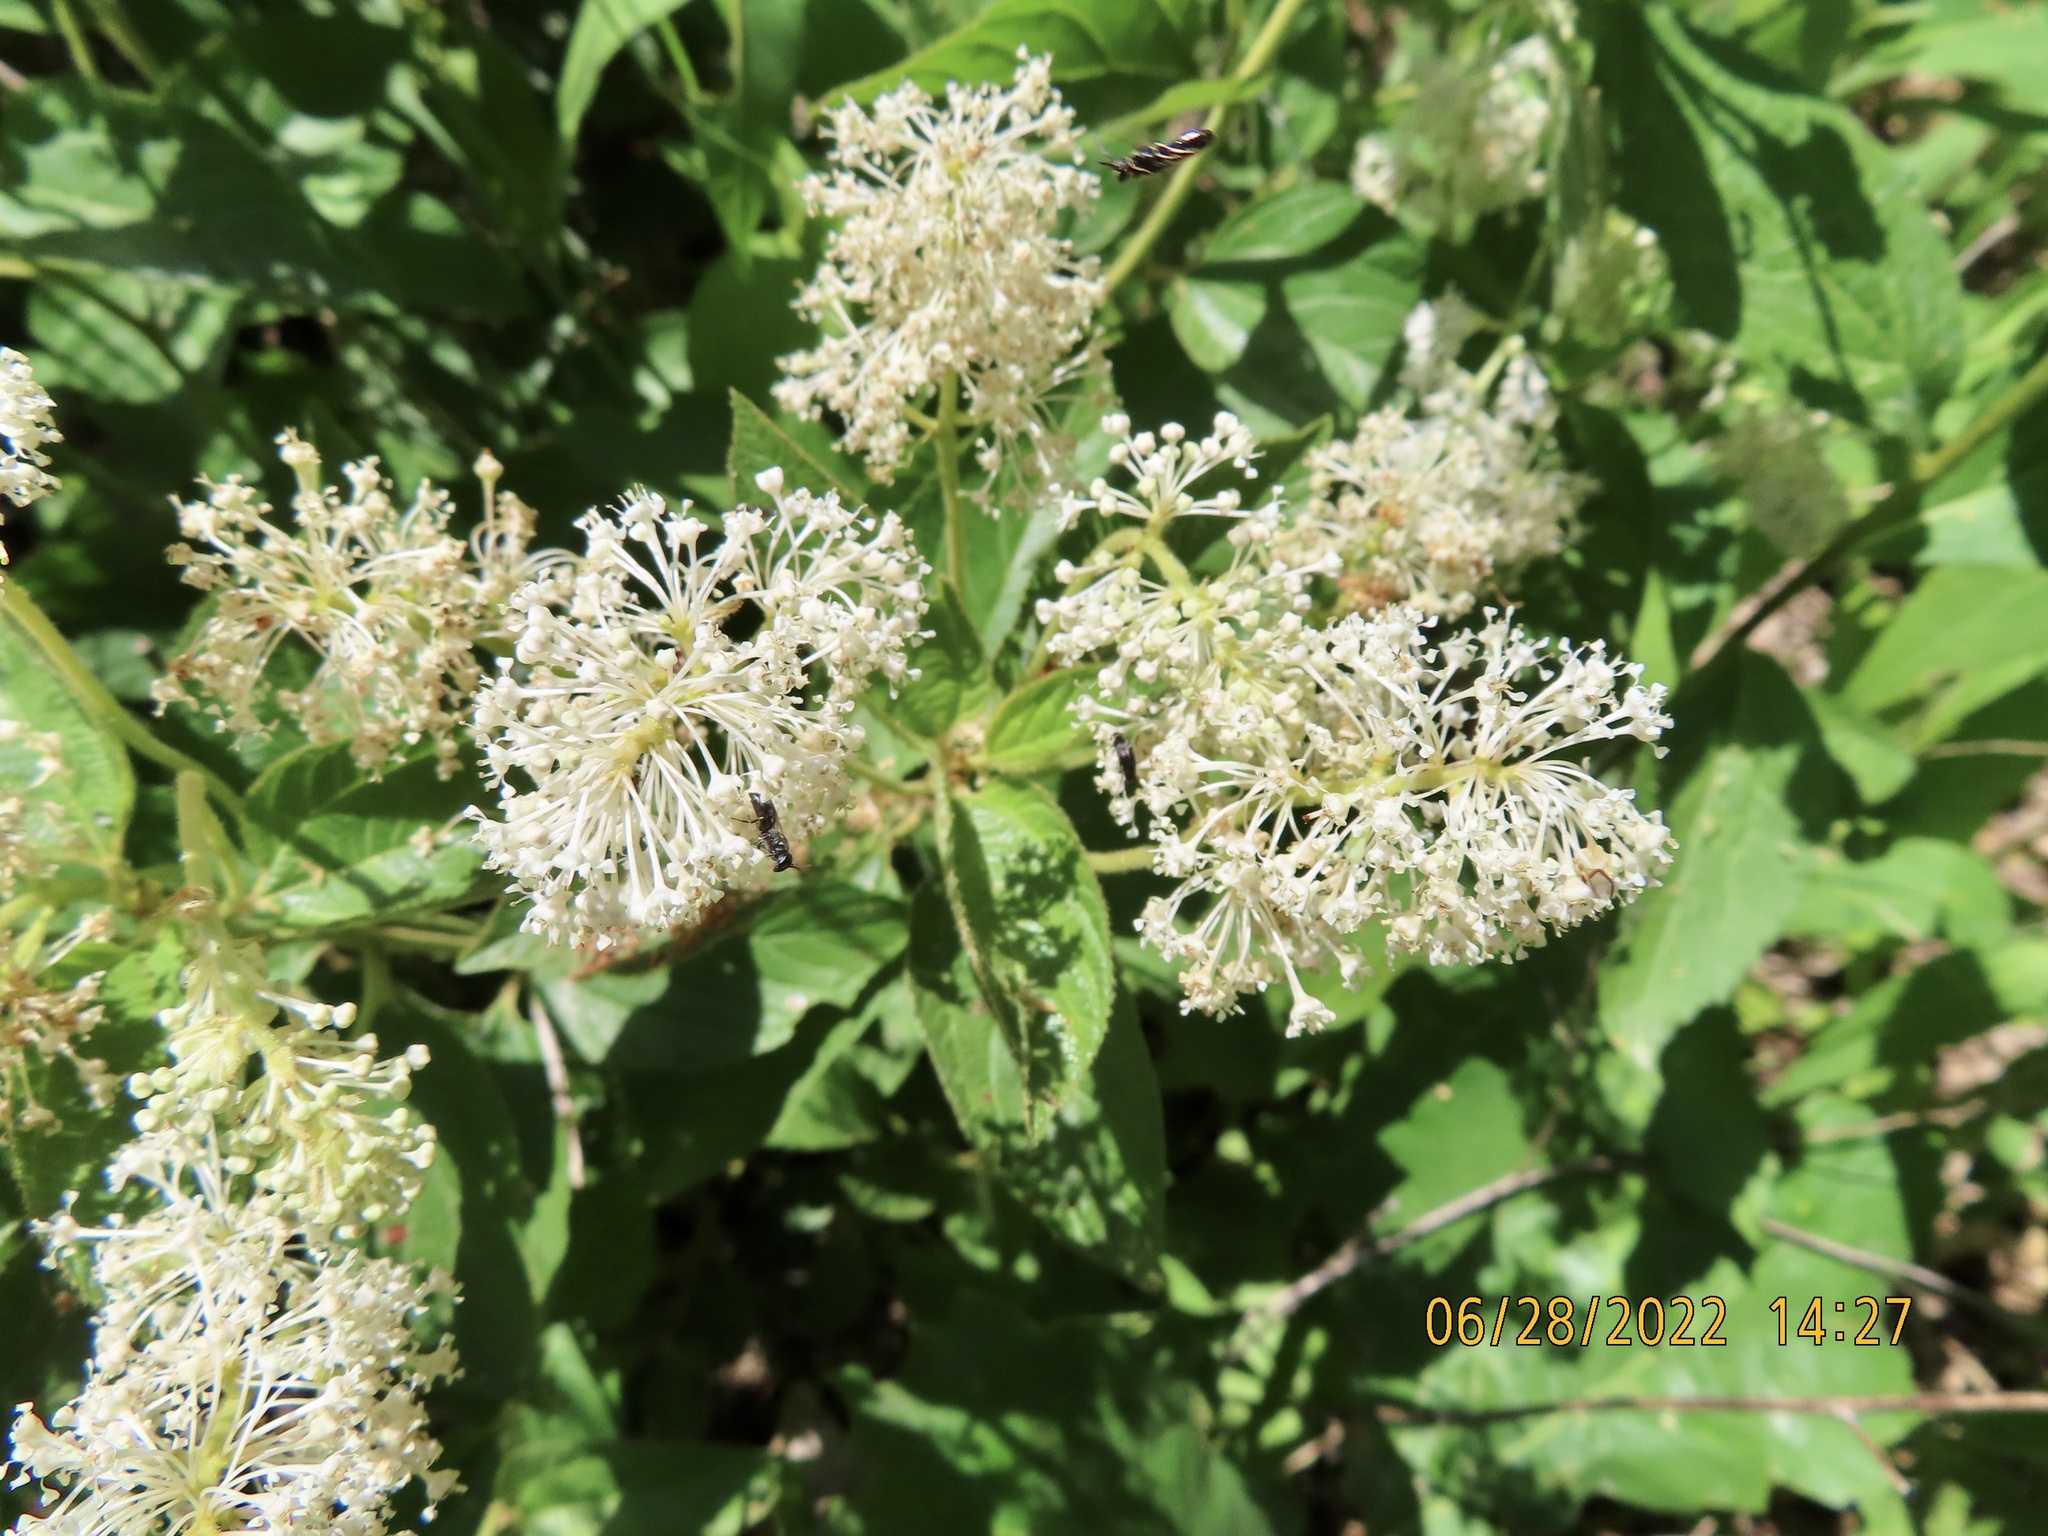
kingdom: Plantae
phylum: Tracheophyta
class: Magnoliopsida
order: Rosales
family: Rhamnaceae
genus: Ceanothus
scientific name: Ceanothus americanus
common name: Redroot
